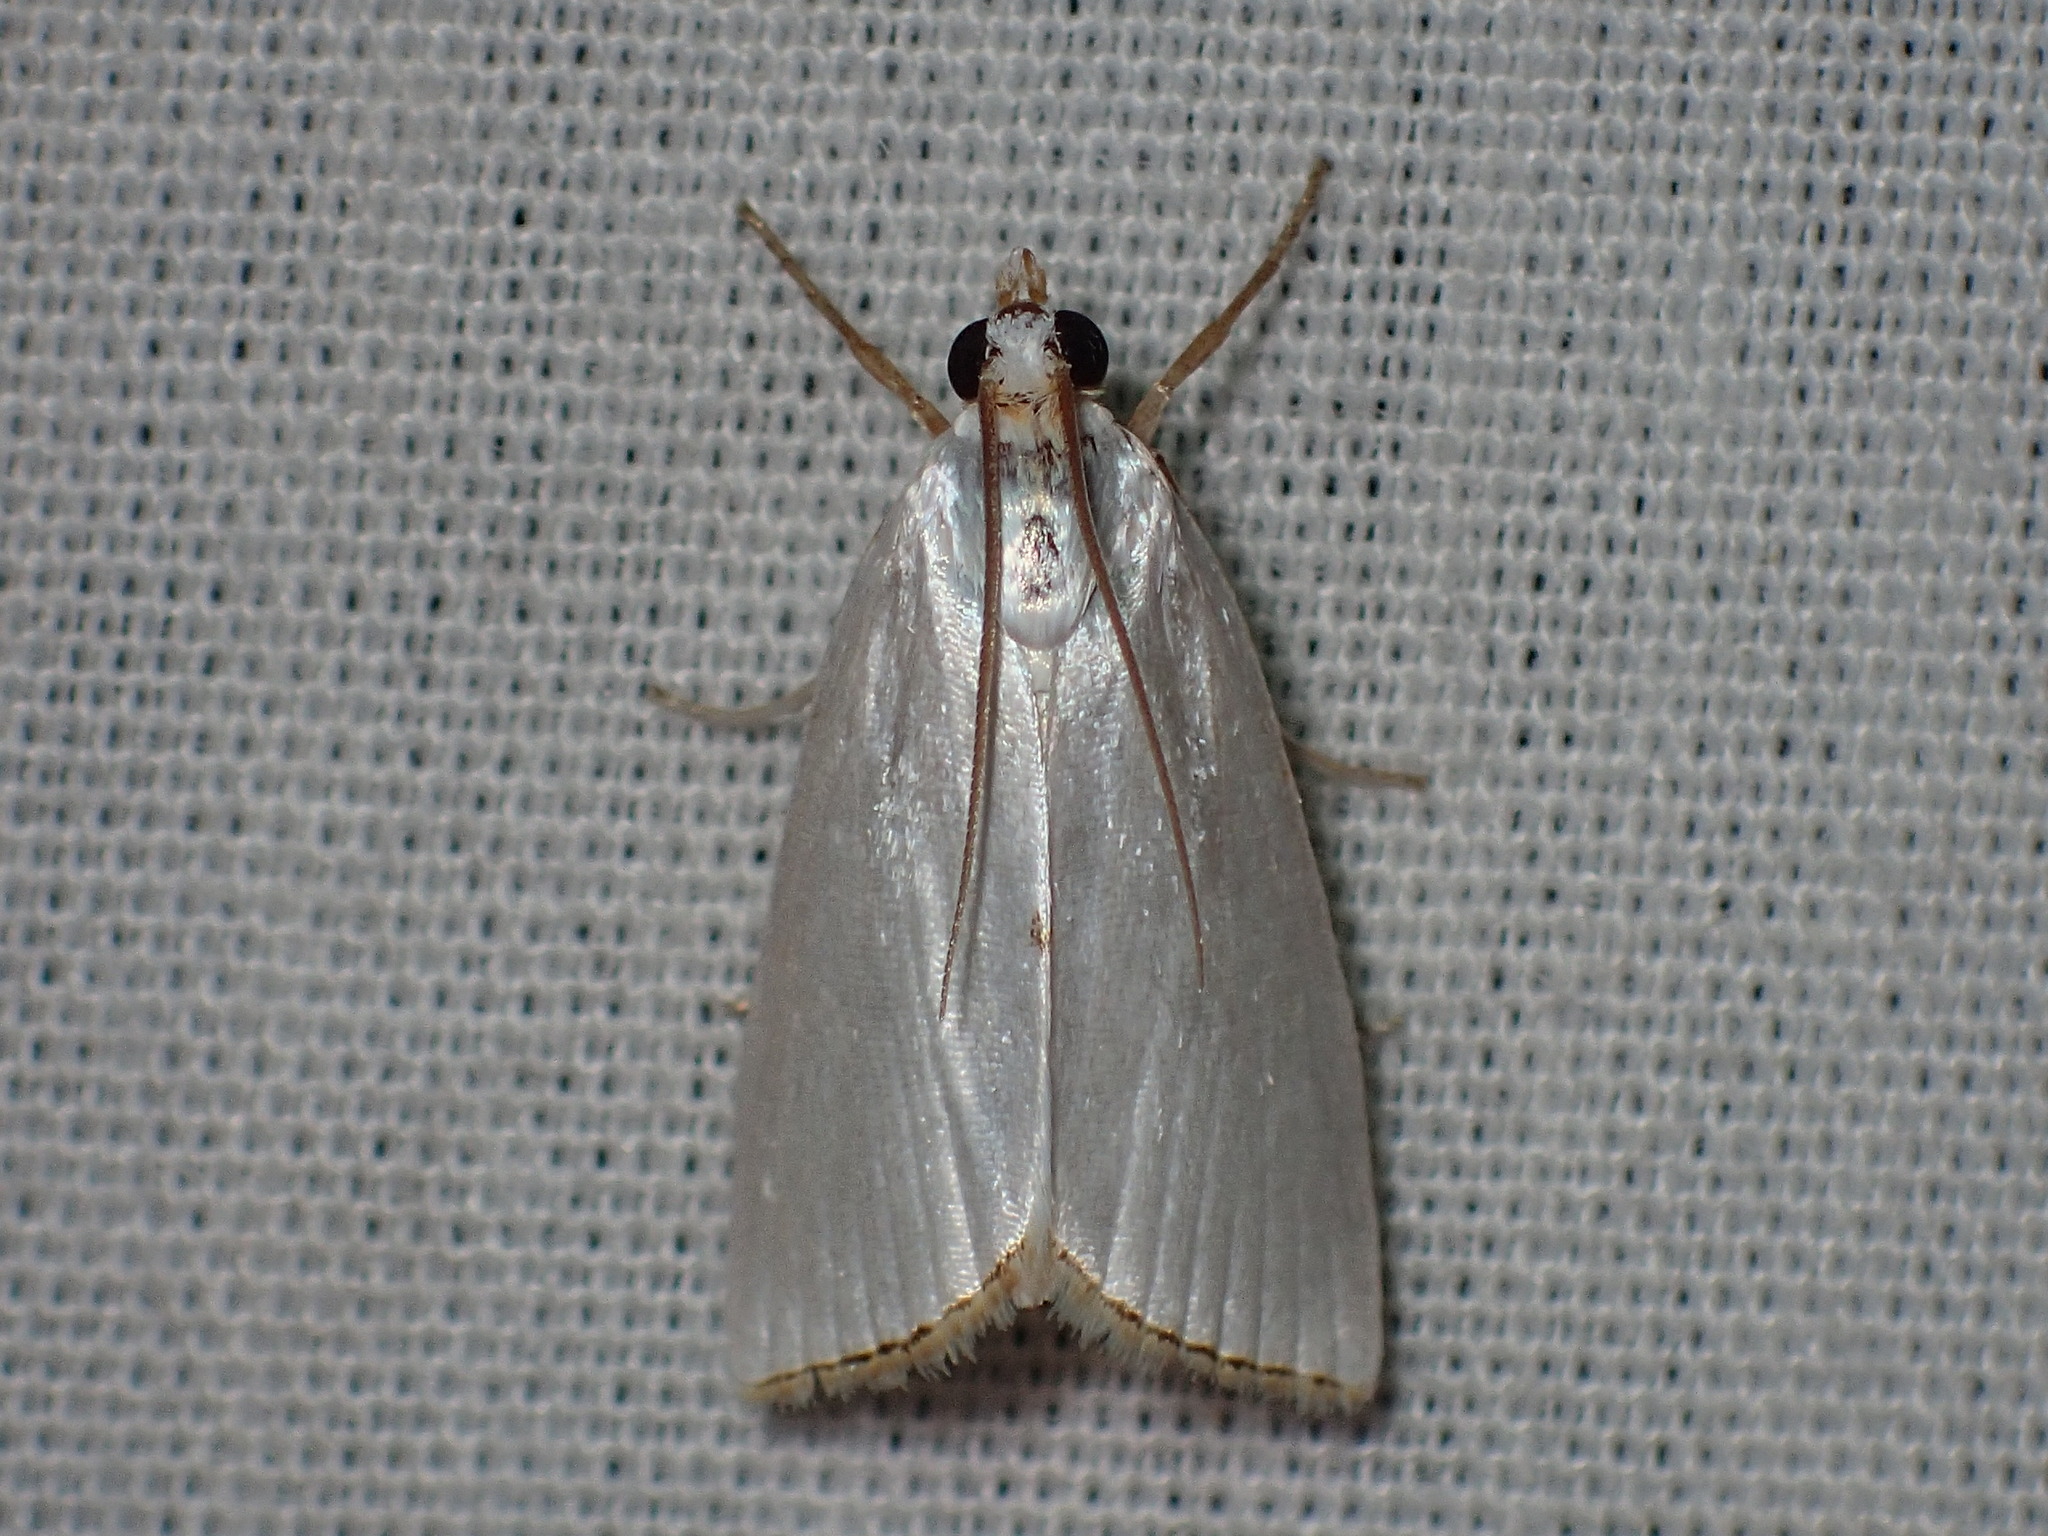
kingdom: Animalia
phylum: Arthropoda
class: Insecta
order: Lepidoptera
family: Crambidae
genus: Argyria
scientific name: Argyria nivalis
